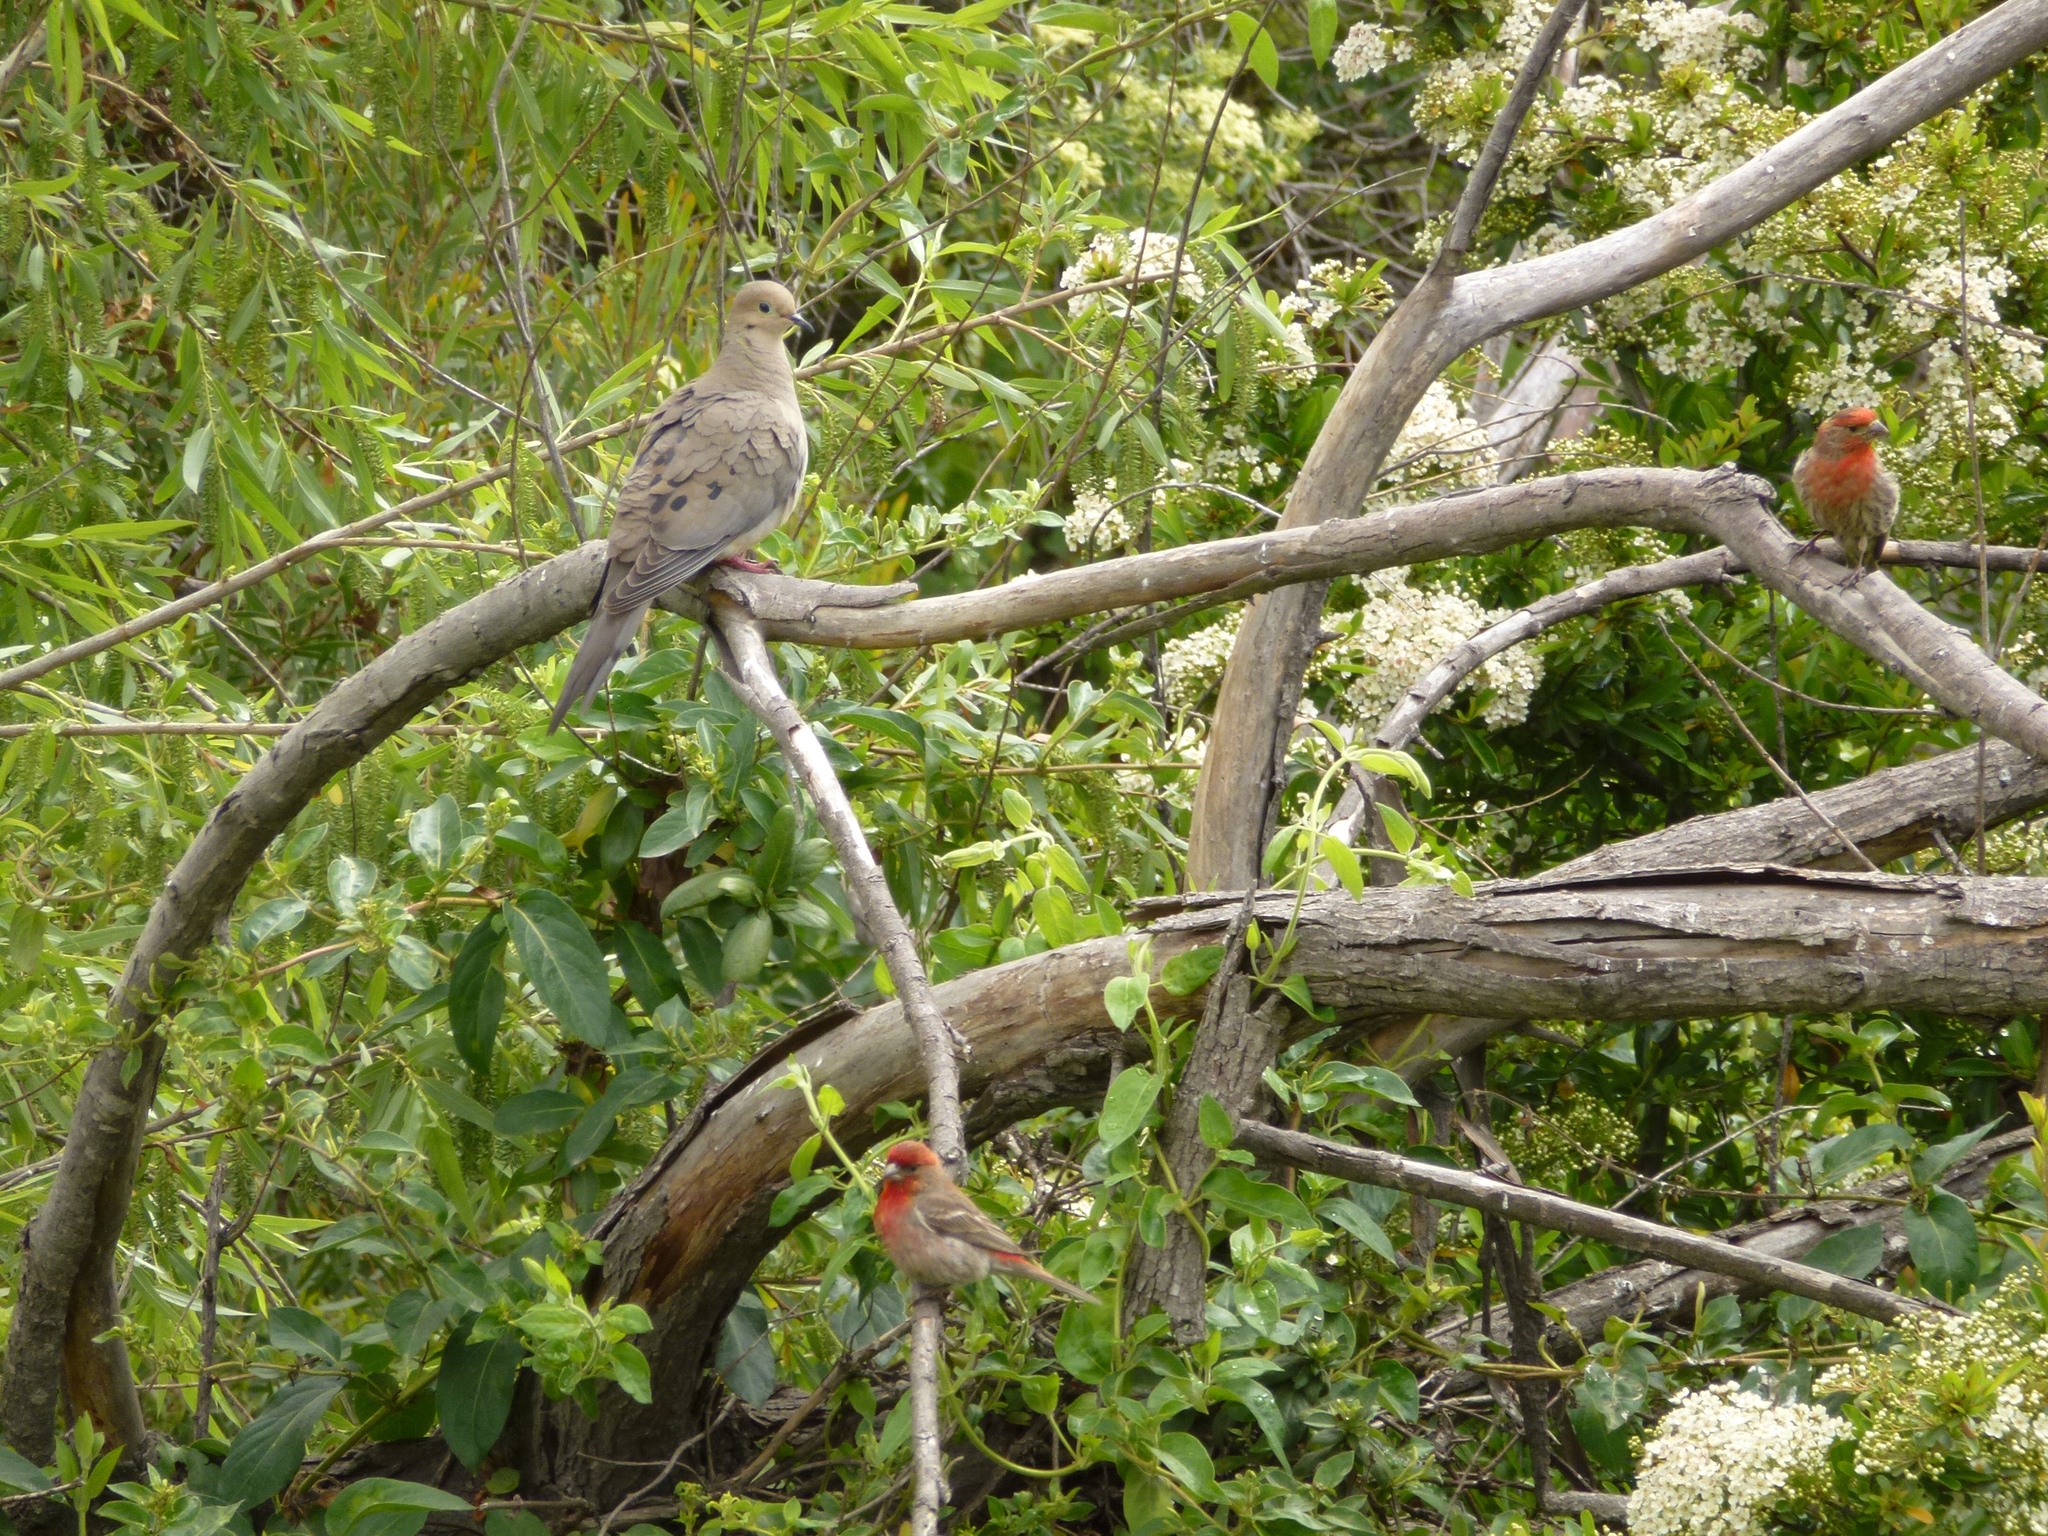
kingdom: Animalia
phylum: Chordata
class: Aves
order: Passeriformes
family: Fringillidae
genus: Haemorhous
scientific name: Haemorhous mexicanus
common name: House finch
